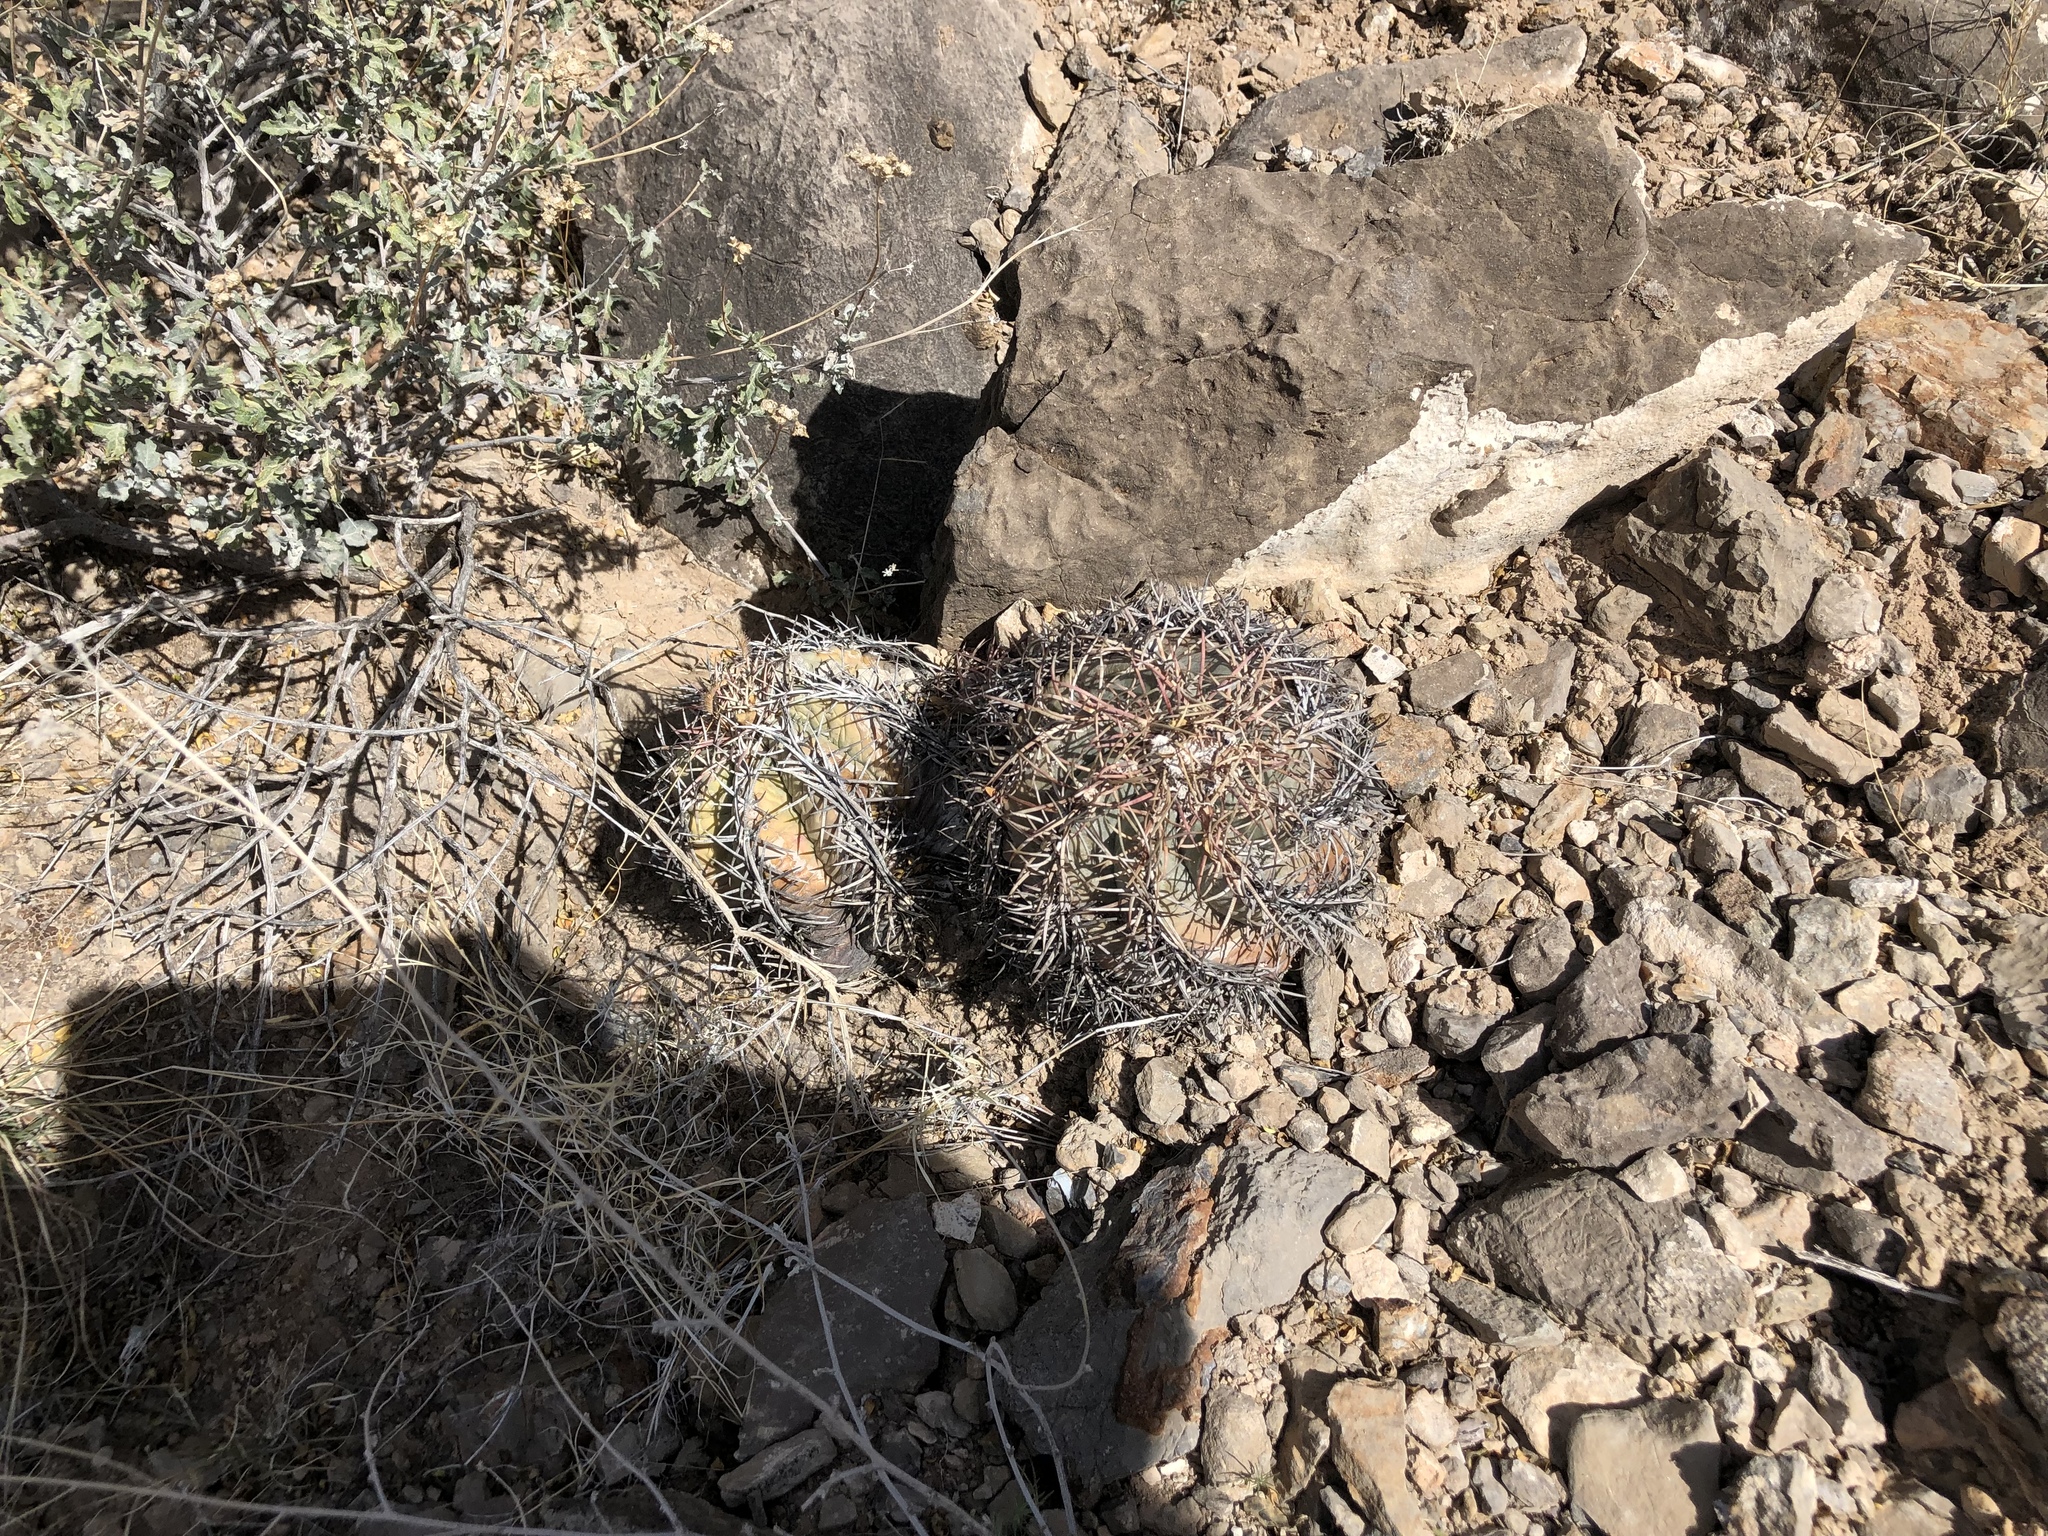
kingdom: Plantae
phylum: Tracheophyta
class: Magnoliopsida
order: Caryophyllales
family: Cactaceae
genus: Echinocactus
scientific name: Echinocactus horizonthalonius
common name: Devilshead
